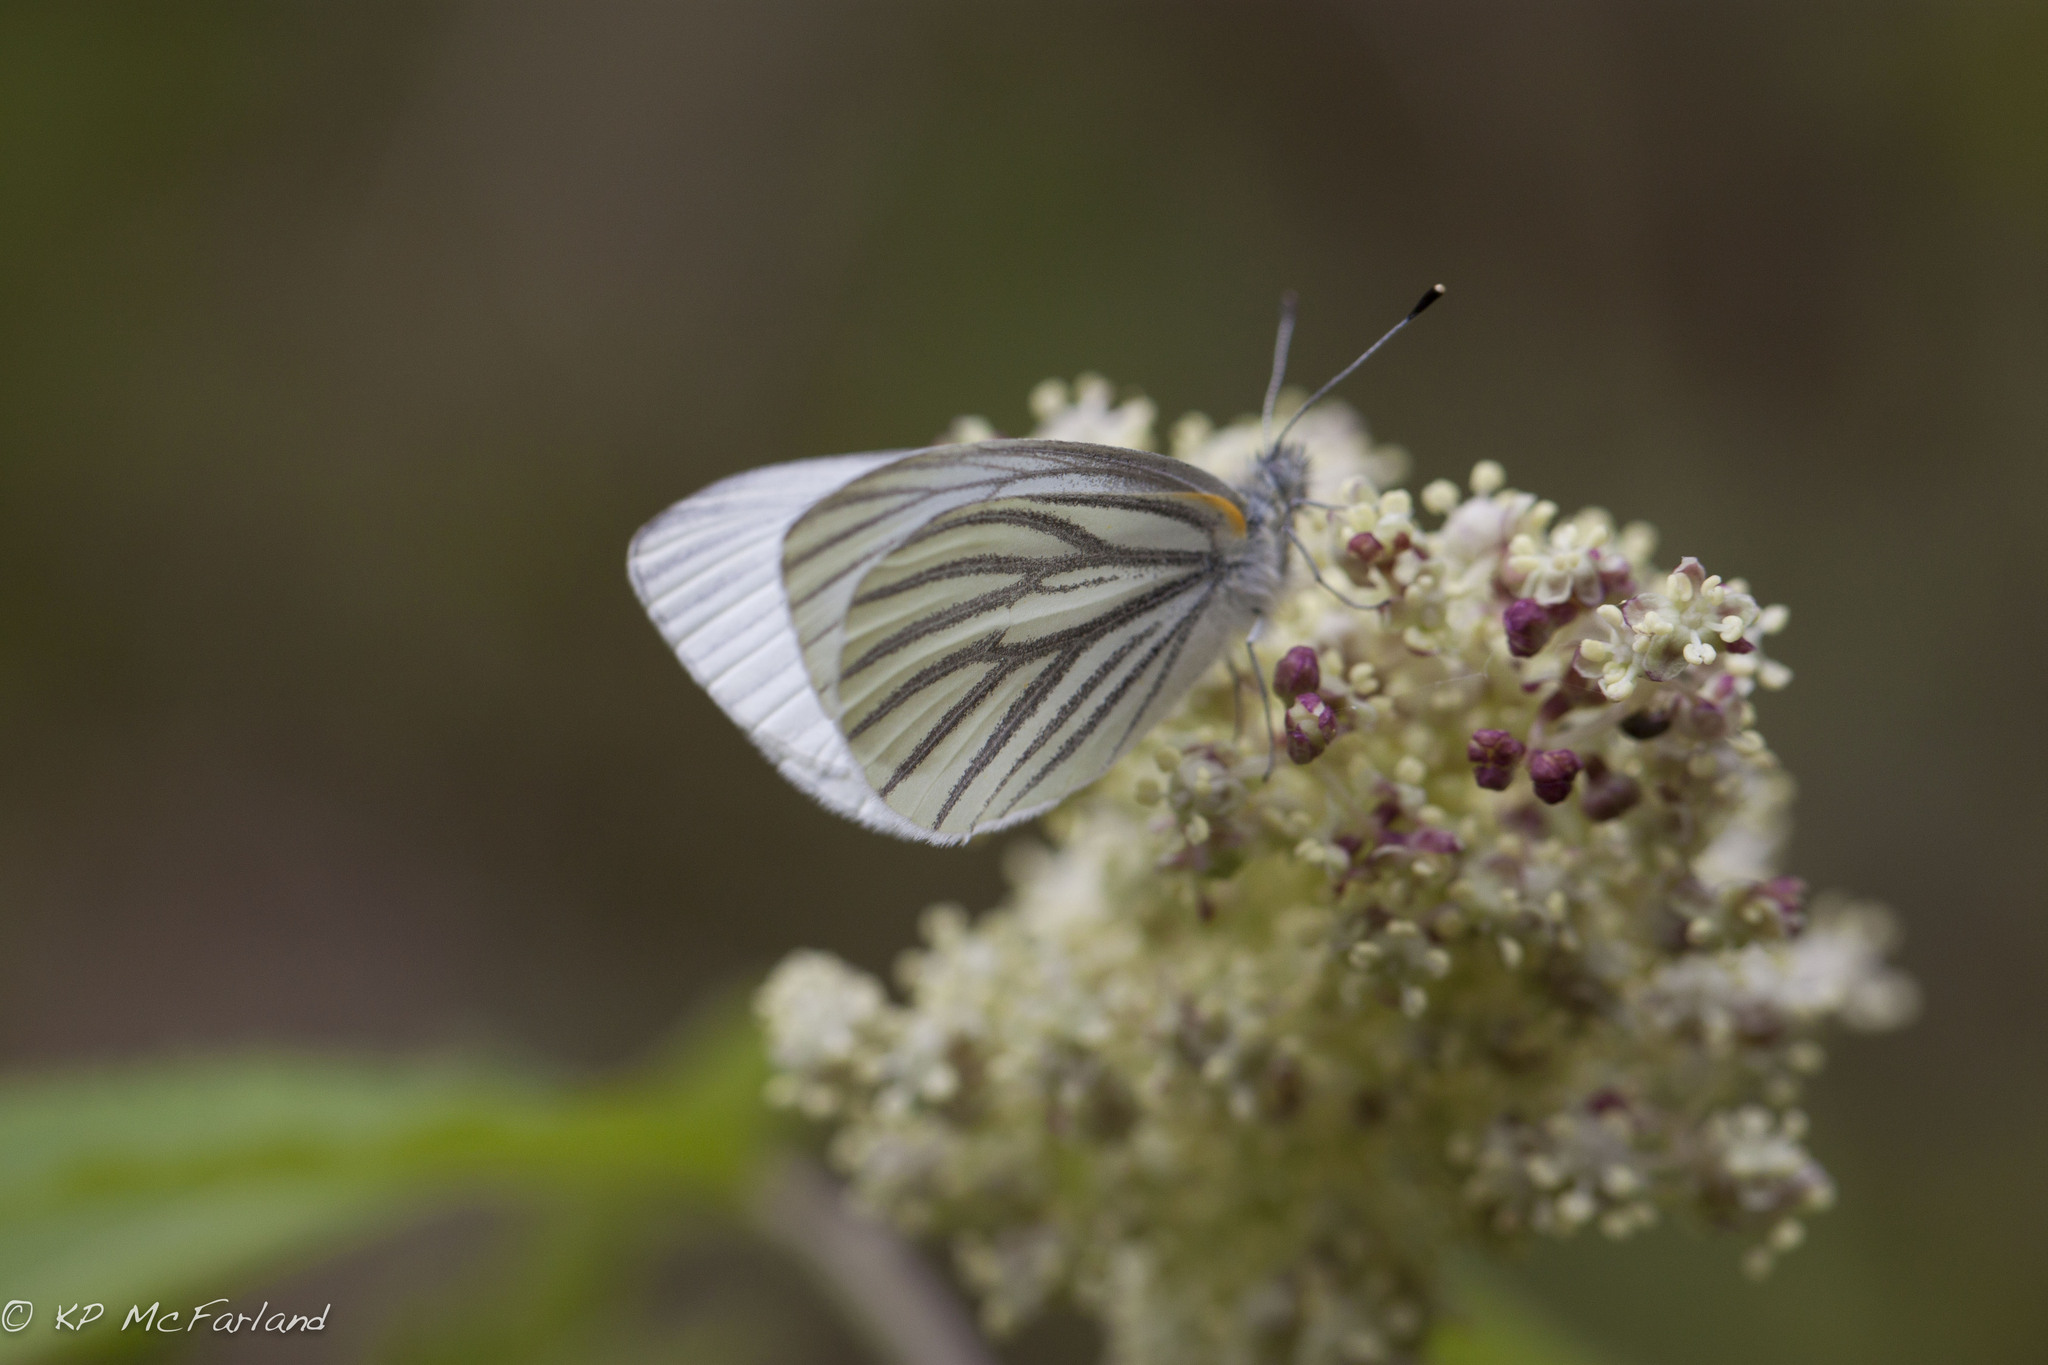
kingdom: Animalia
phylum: Arthropoda
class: Insecta
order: Lepidoptera
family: Pieridae
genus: Pieris
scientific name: Pieris oleracea
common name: Mustard white
